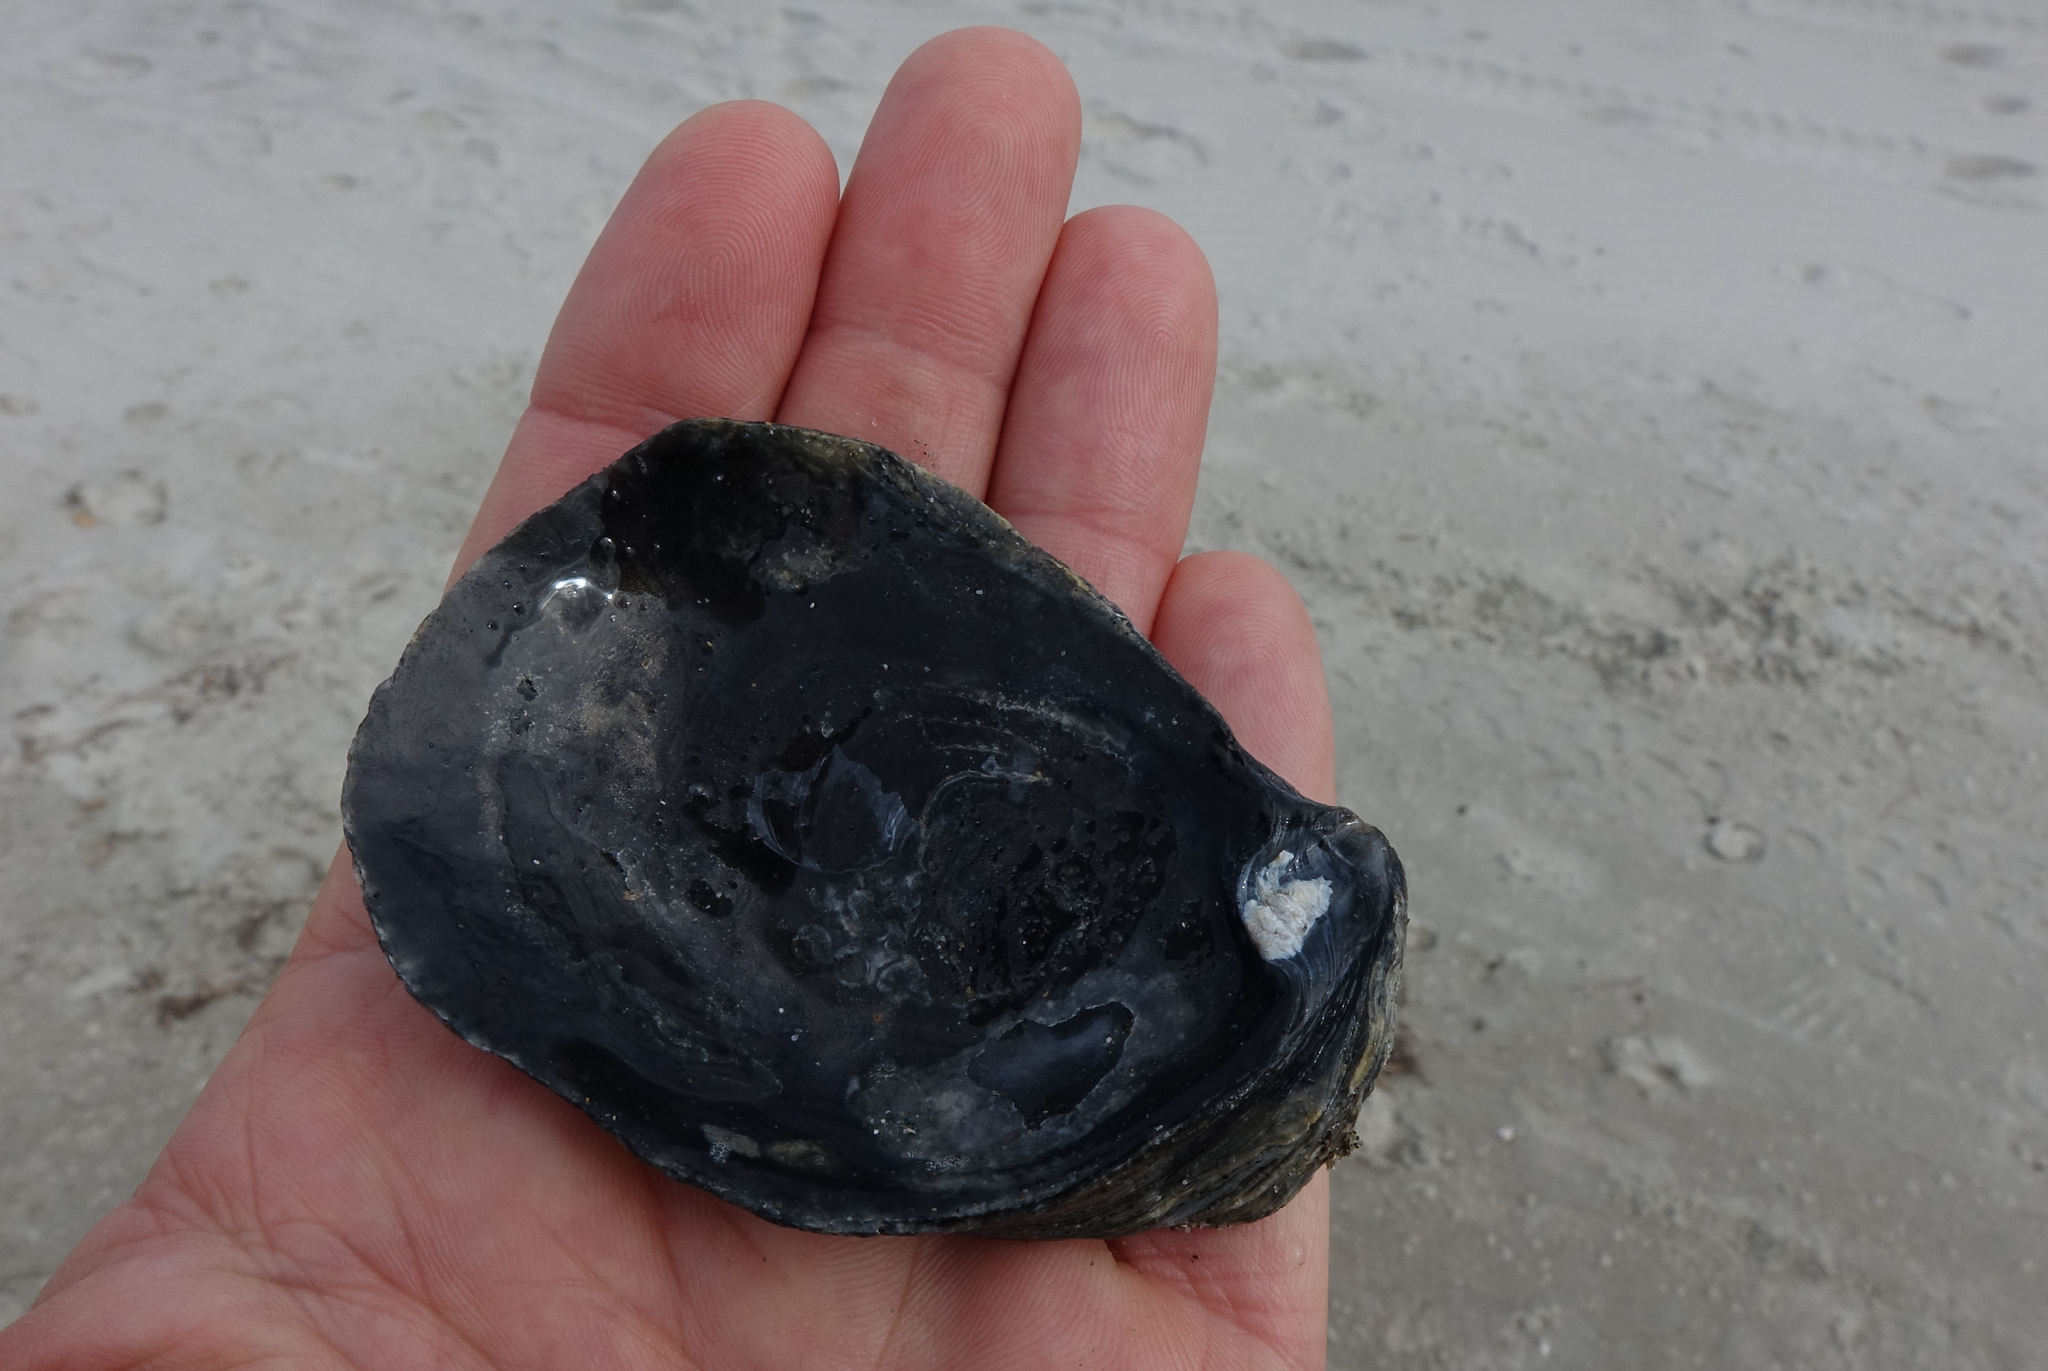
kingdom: Animalia
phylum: Mollusca
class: Bivalvia
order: Ostreida
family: Ostreidae
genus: Ostrea
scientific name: Ostrea chilensis
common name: Chilean oyster
